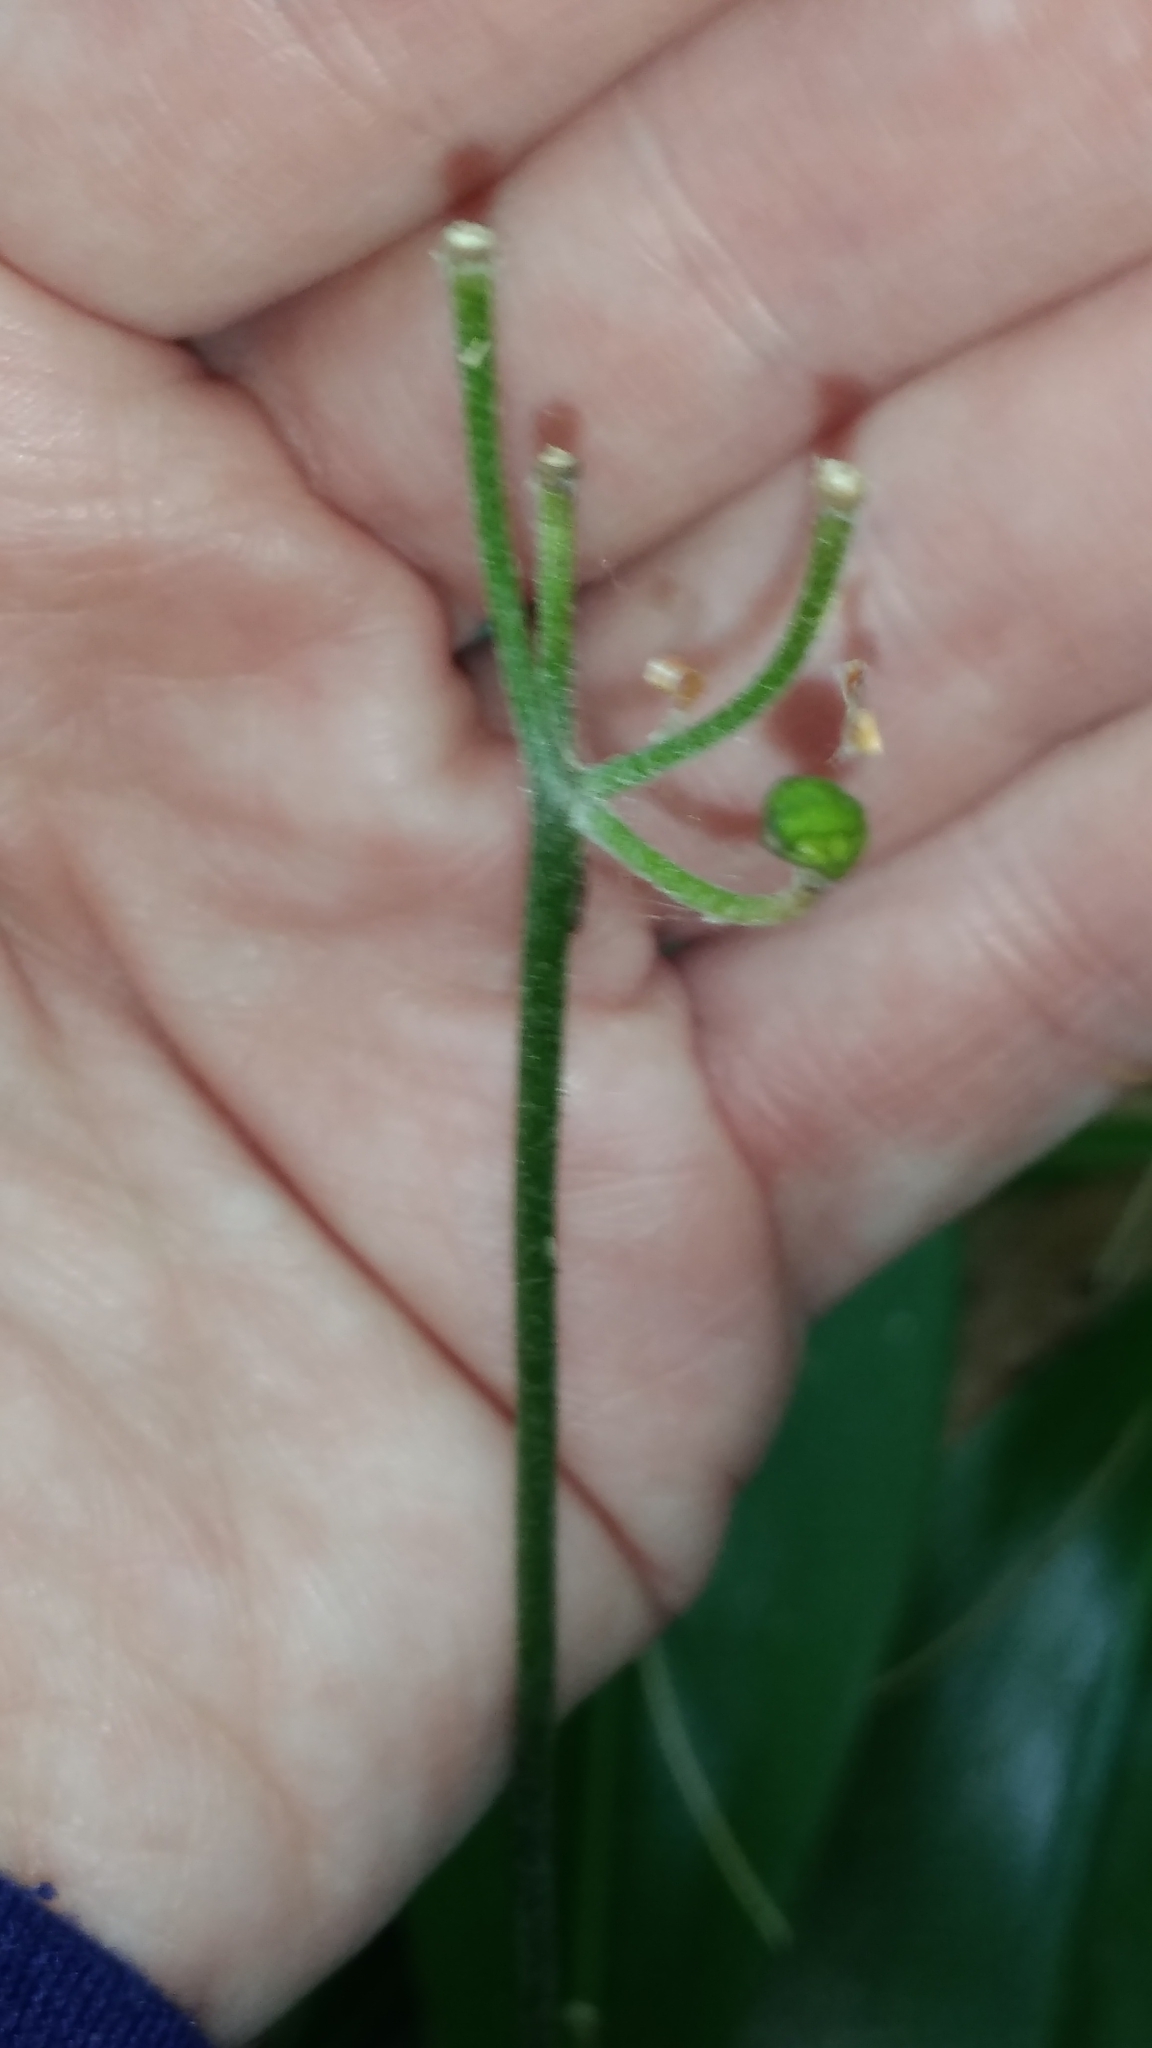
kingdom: Plantae
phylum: Tracheophyta
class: Liliopsida
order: Asparagales
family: Asparagaceae
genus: Convallaria
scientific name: Convallaria majalis
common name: Lily-of-the-valley
